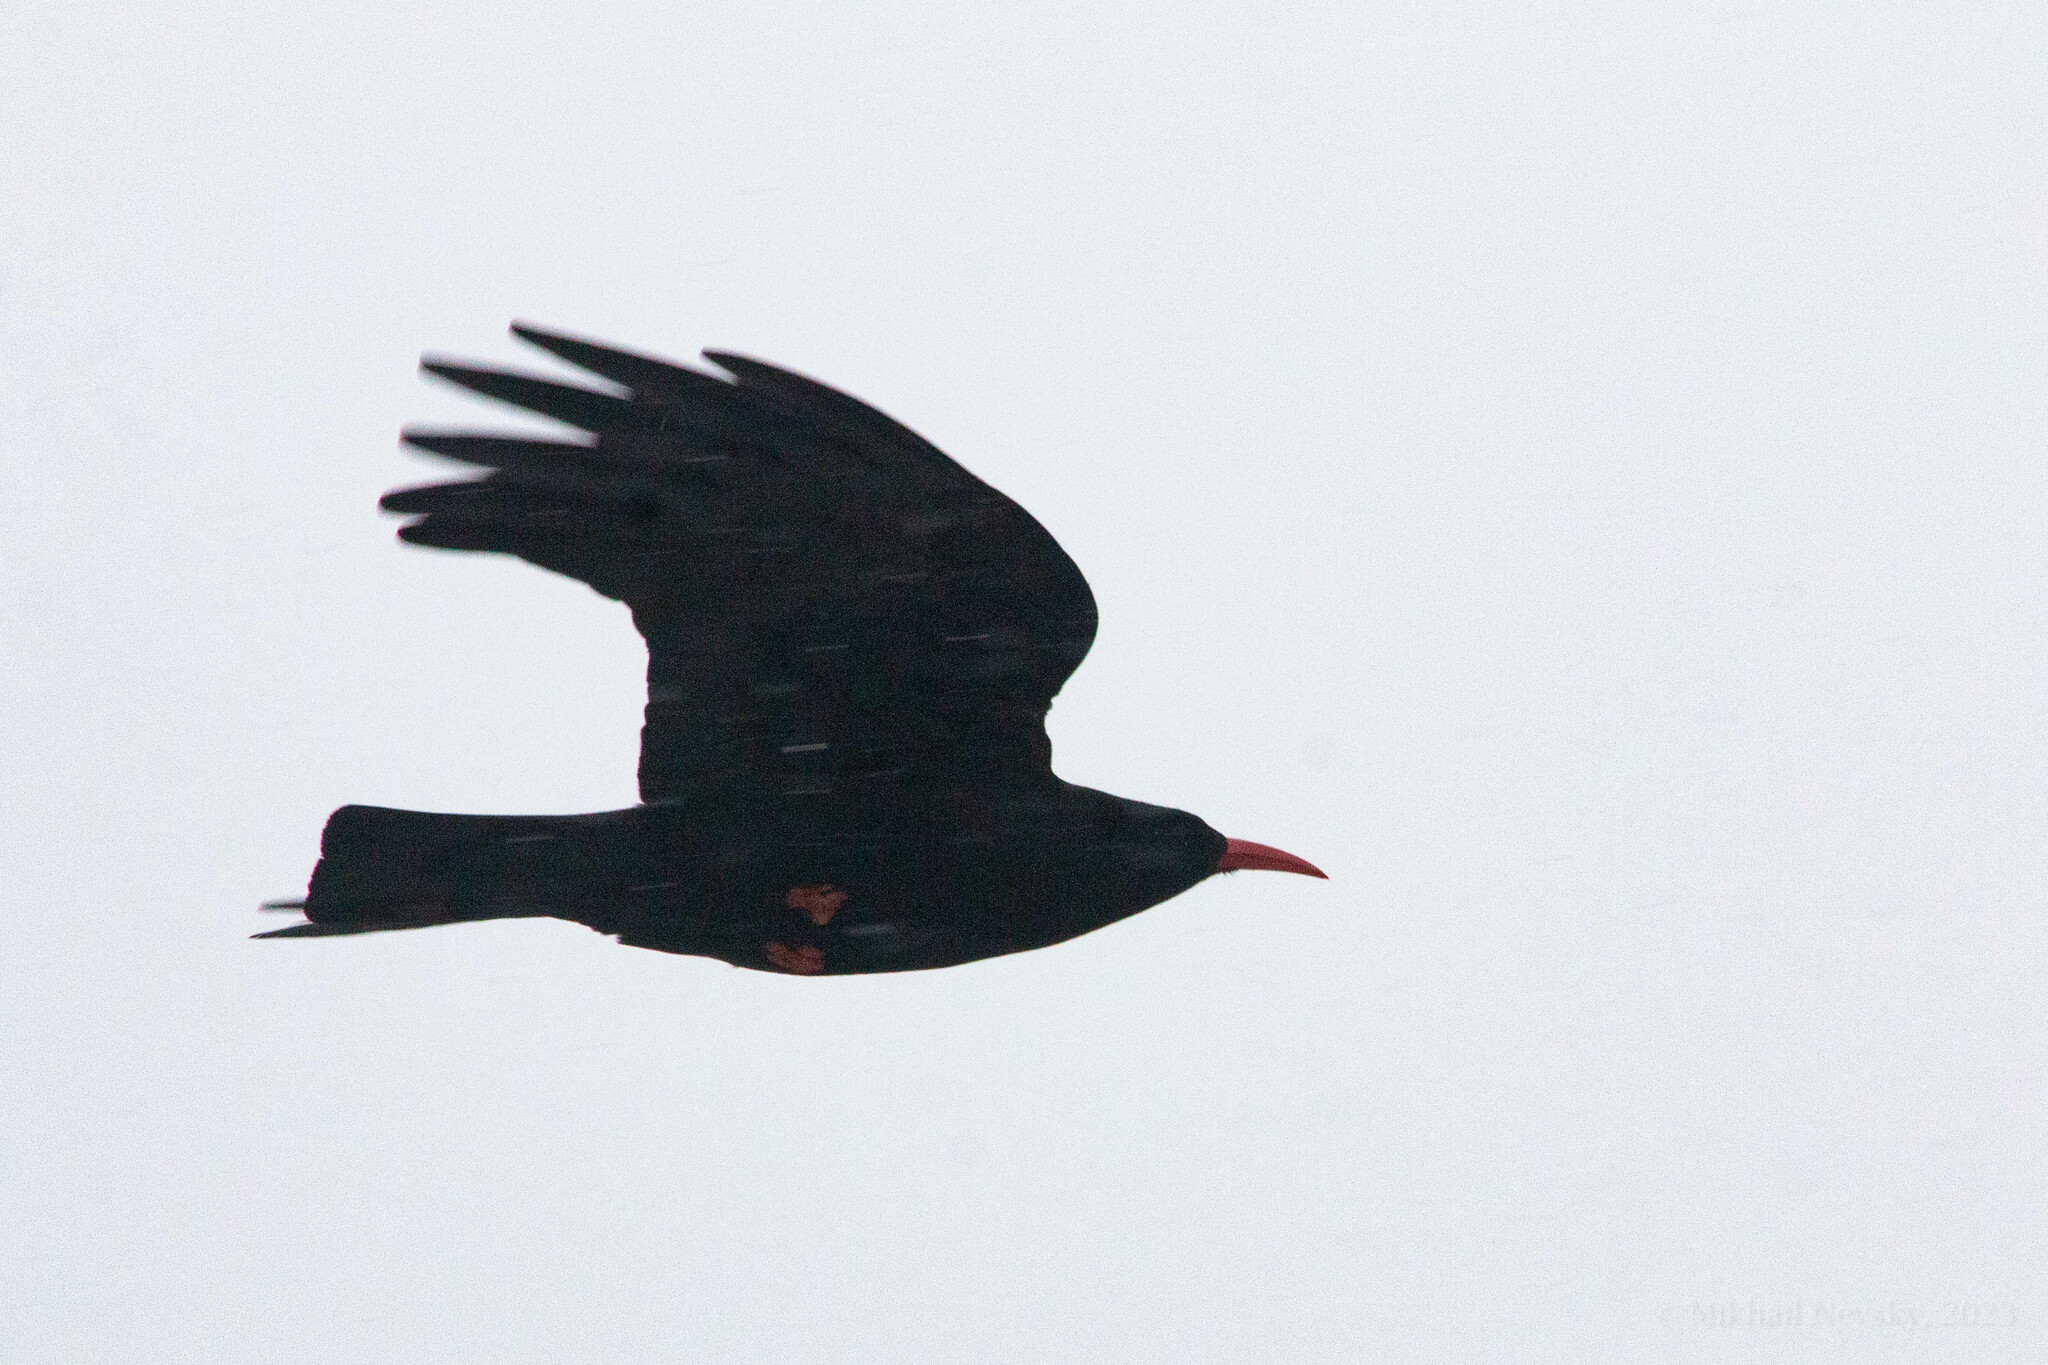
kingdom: Animalia
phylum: Chordata
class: Aves
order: Passeriformes
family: Corvidae
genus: Pyrrhocorax
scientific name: Pyrrhocorax pyrrhocorax
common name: Red-billed chough
